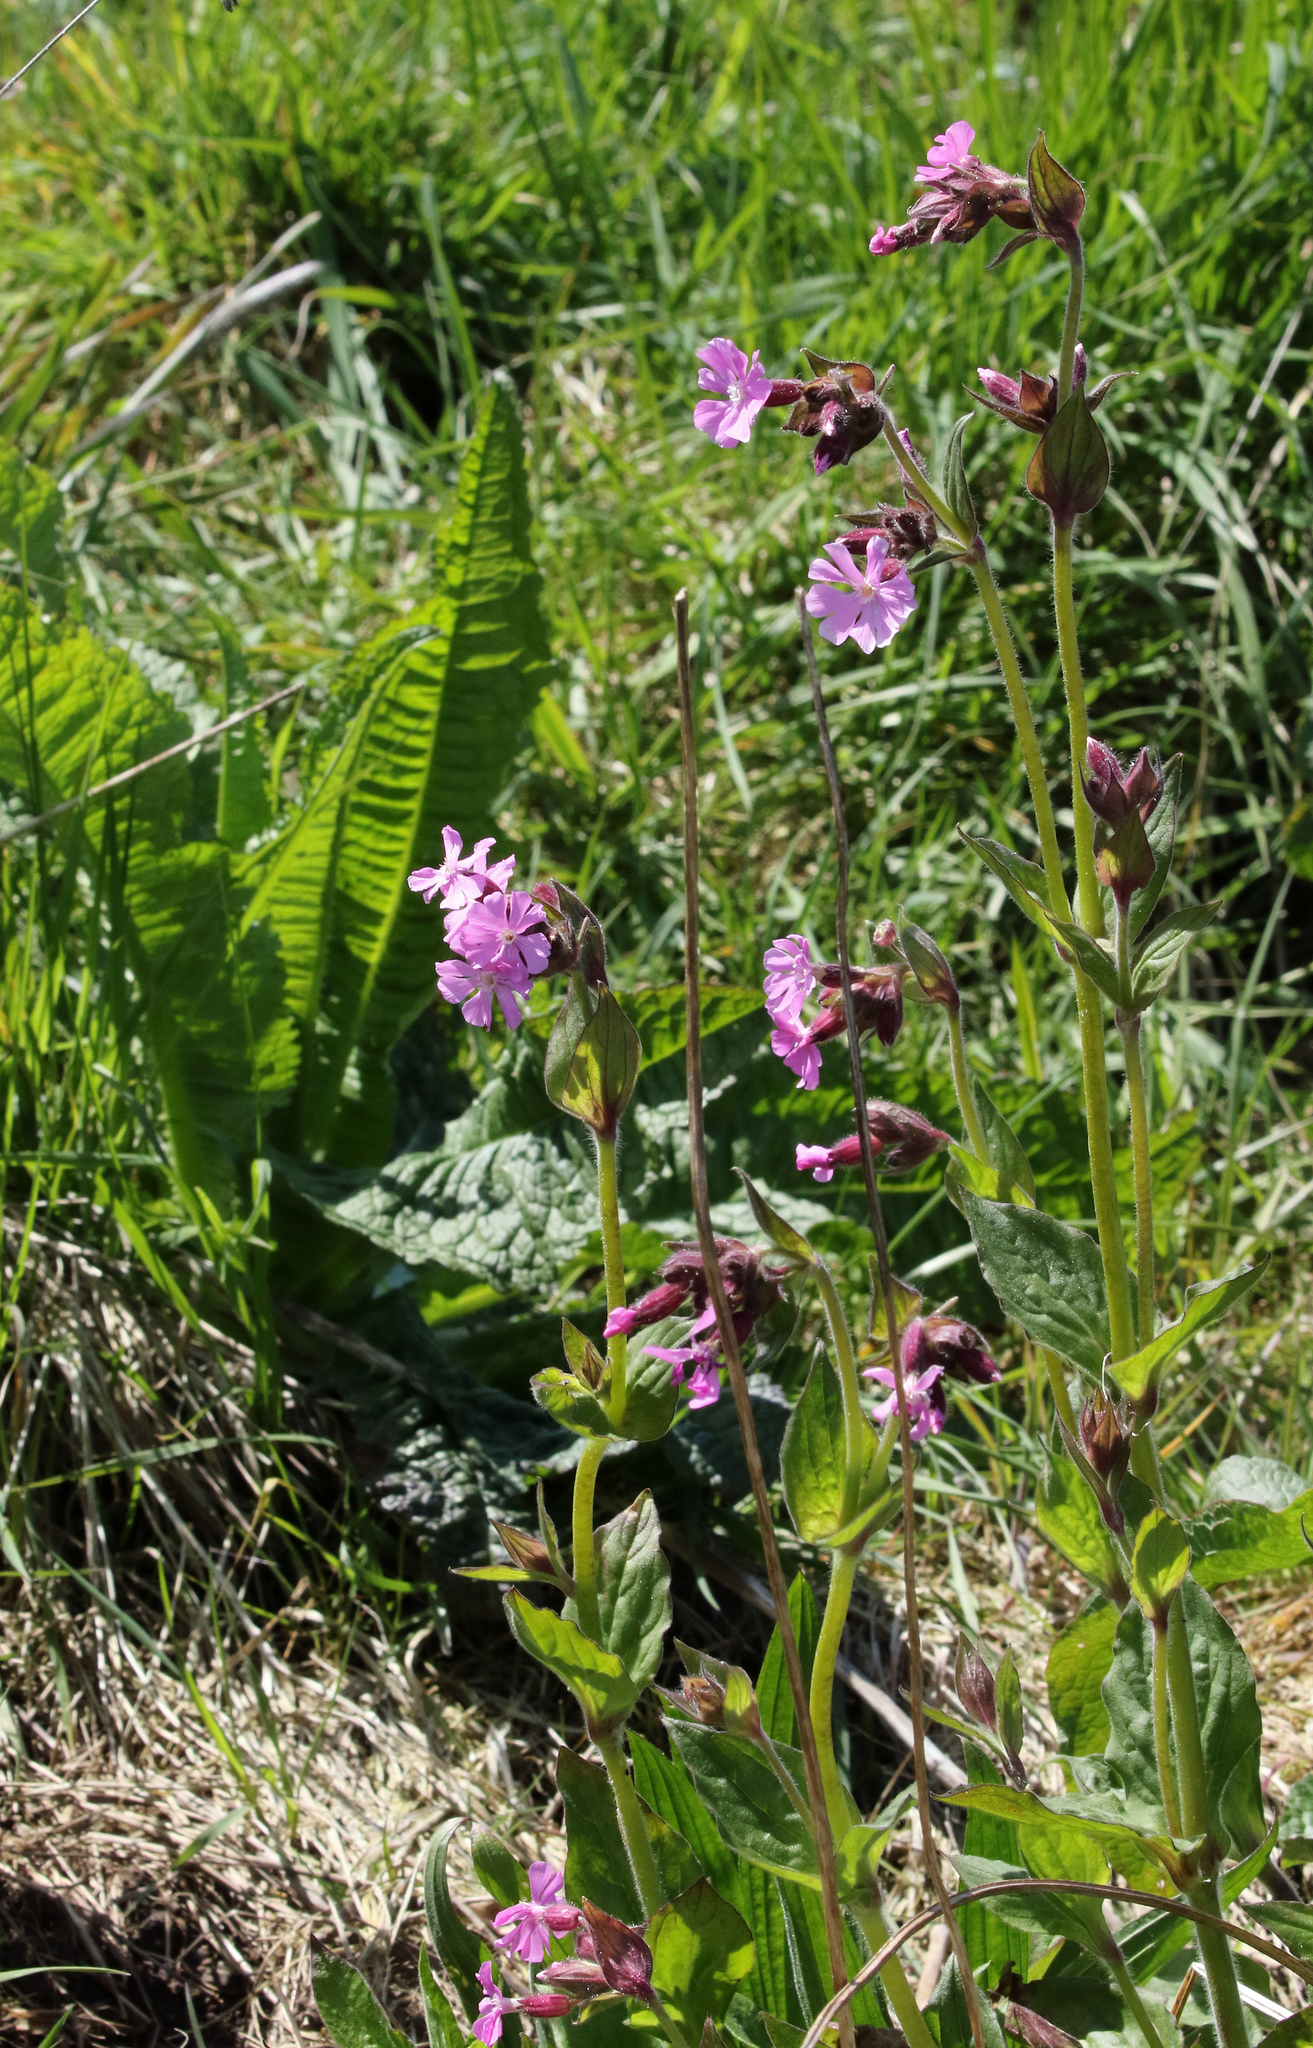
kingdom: Plantae
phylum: Tracheophyta
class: Magnoliopsida
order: Caryophyllales
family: Caryophyllaceae
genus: Silene
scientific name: Silene dioica
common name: Red campion
